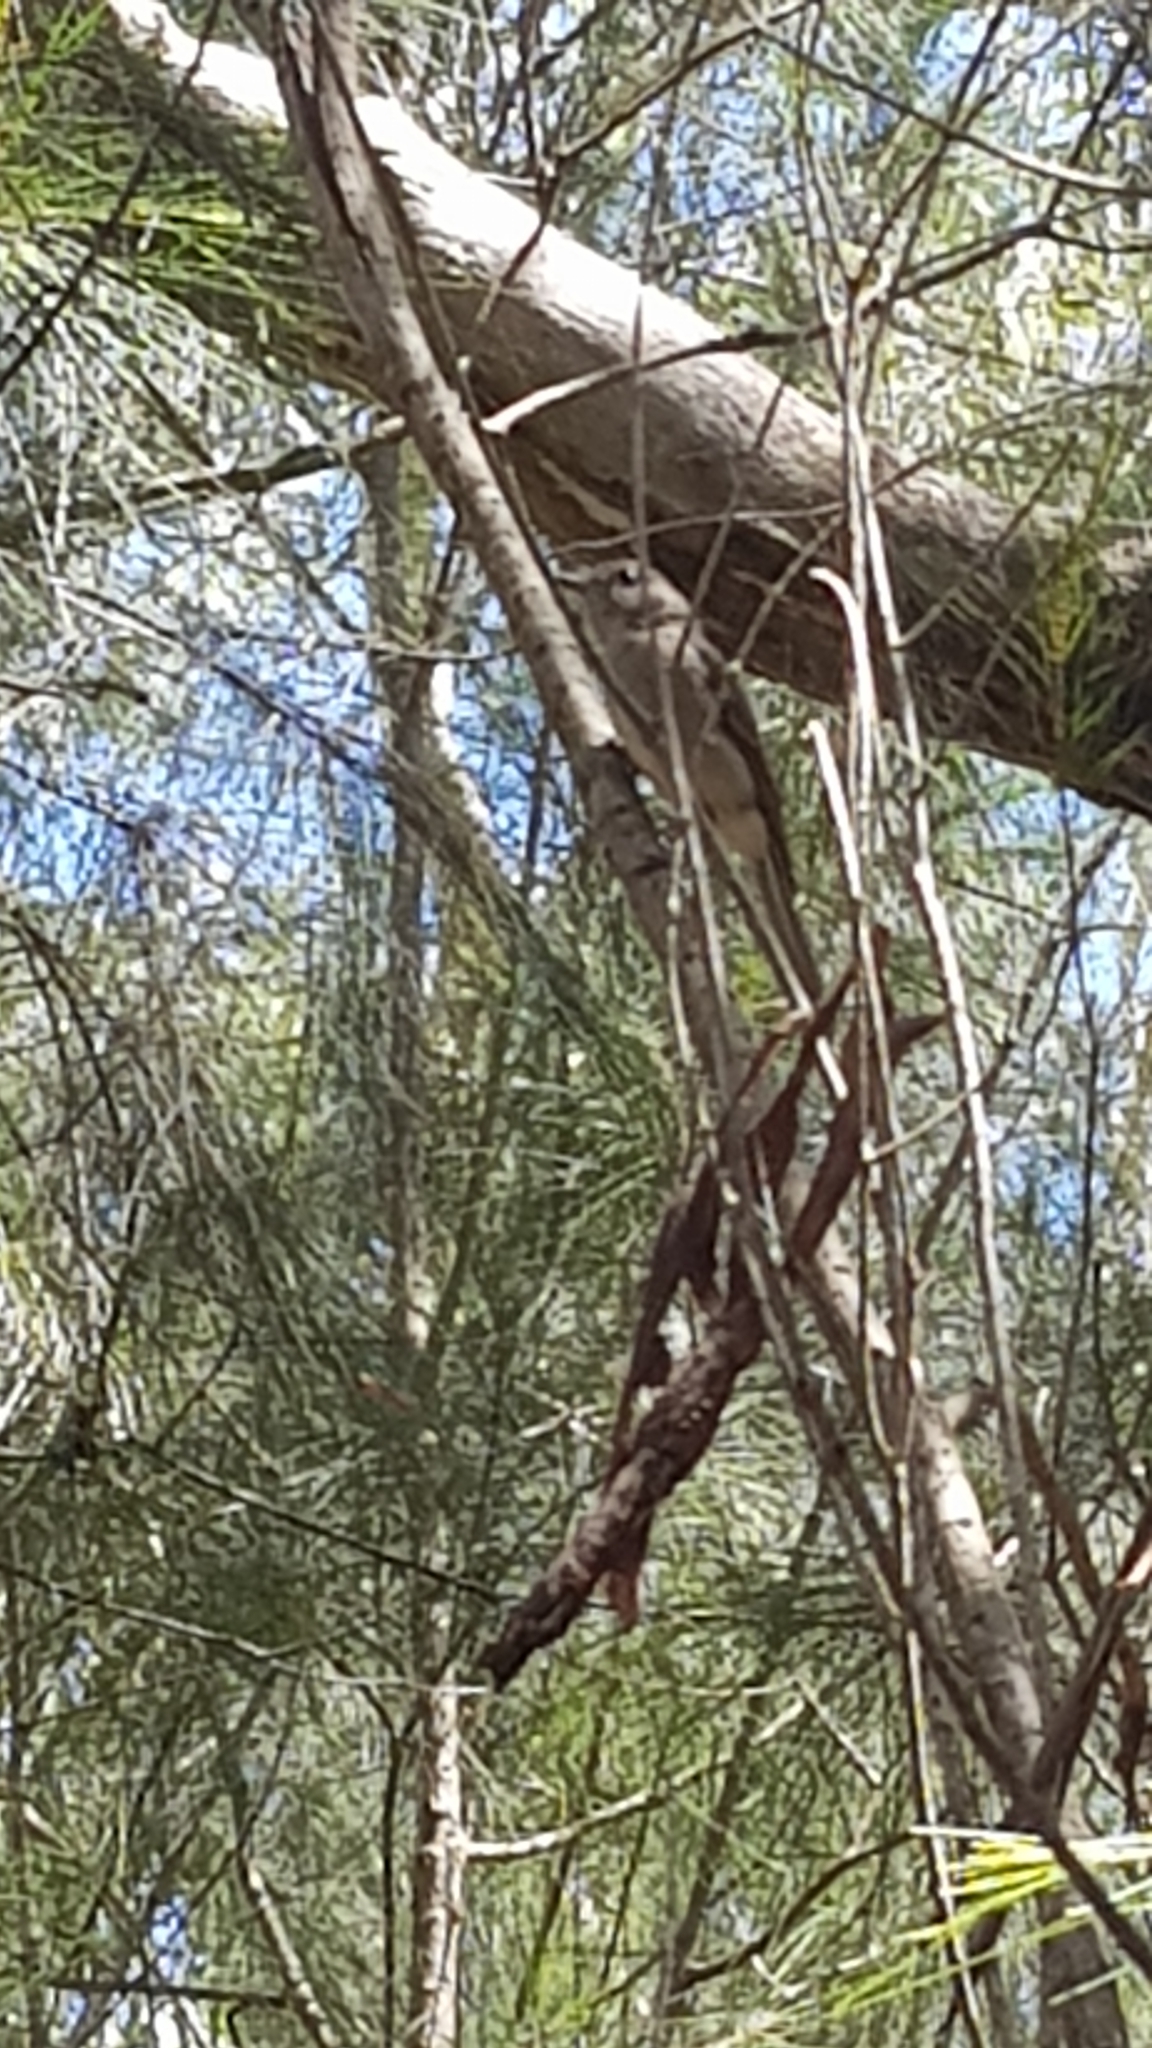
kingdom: Animalia
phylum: Chordata
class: Aves
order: Passeriformes
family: Pachycephalidae
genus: Colluricincla
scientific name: Colluricincla harmonica
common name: Grey shrikethrush
